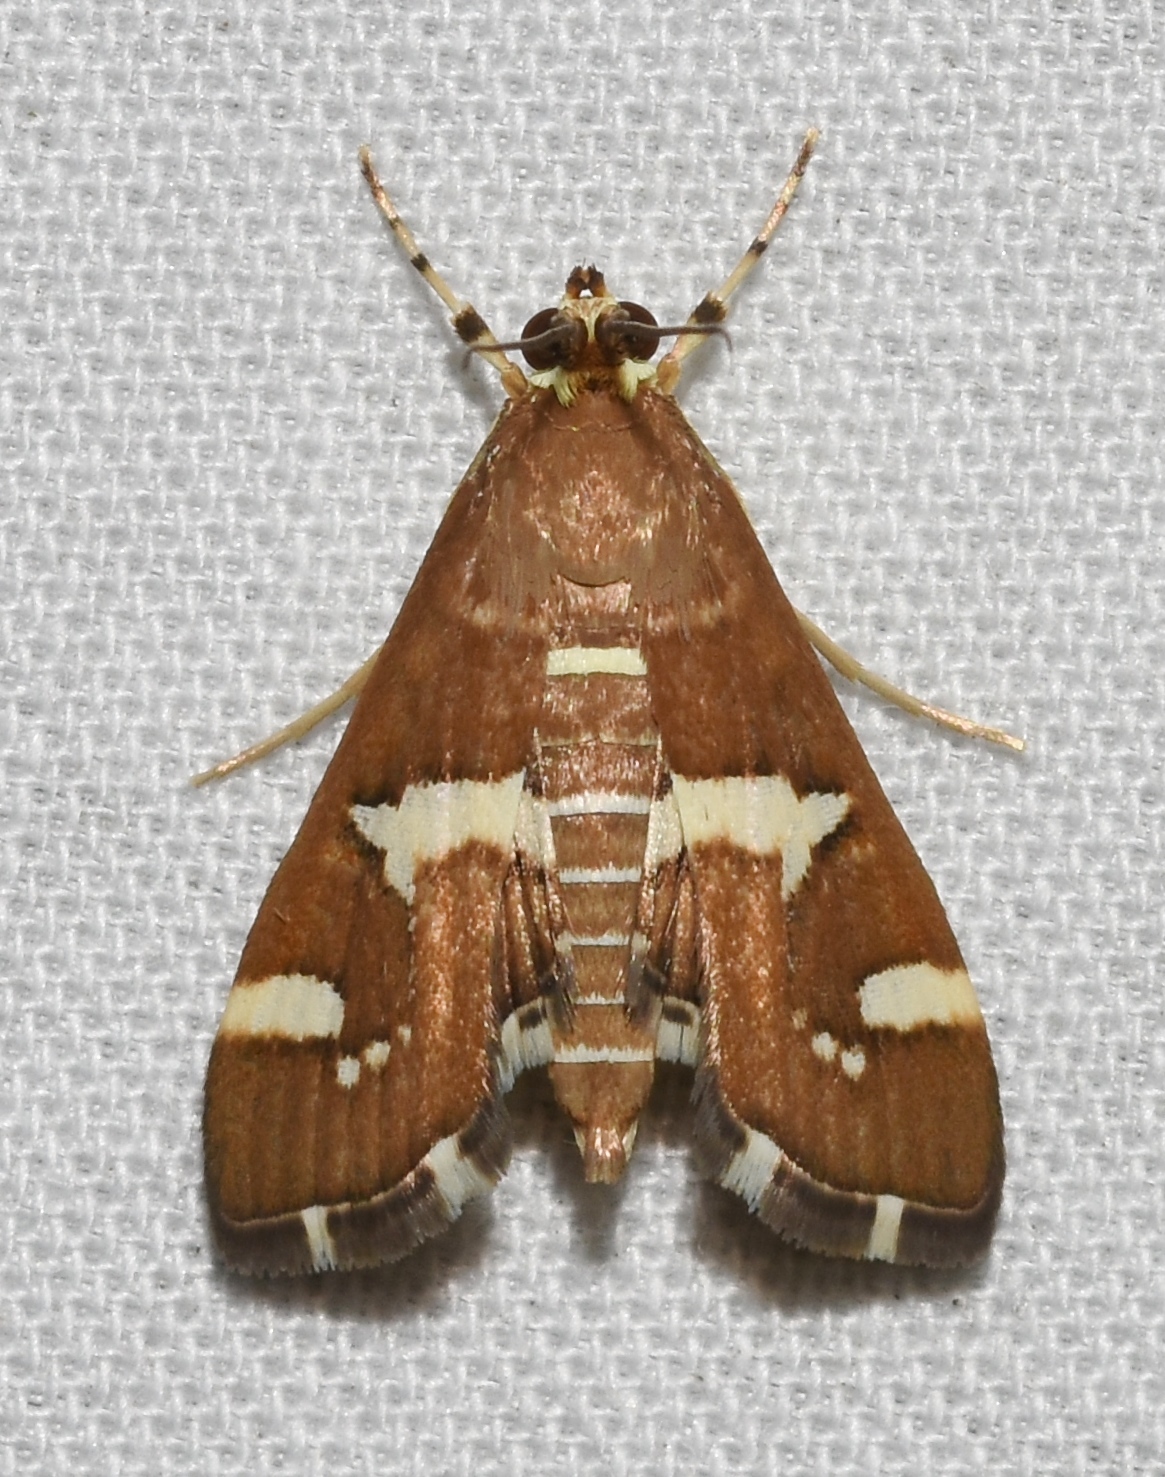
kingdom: Animalia
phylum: Arthropoda
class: Insecta
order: Lepidoptera
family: Crambidae
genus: Spoladea
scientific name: Spoladea recurvalis
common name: Beet webworm moth
